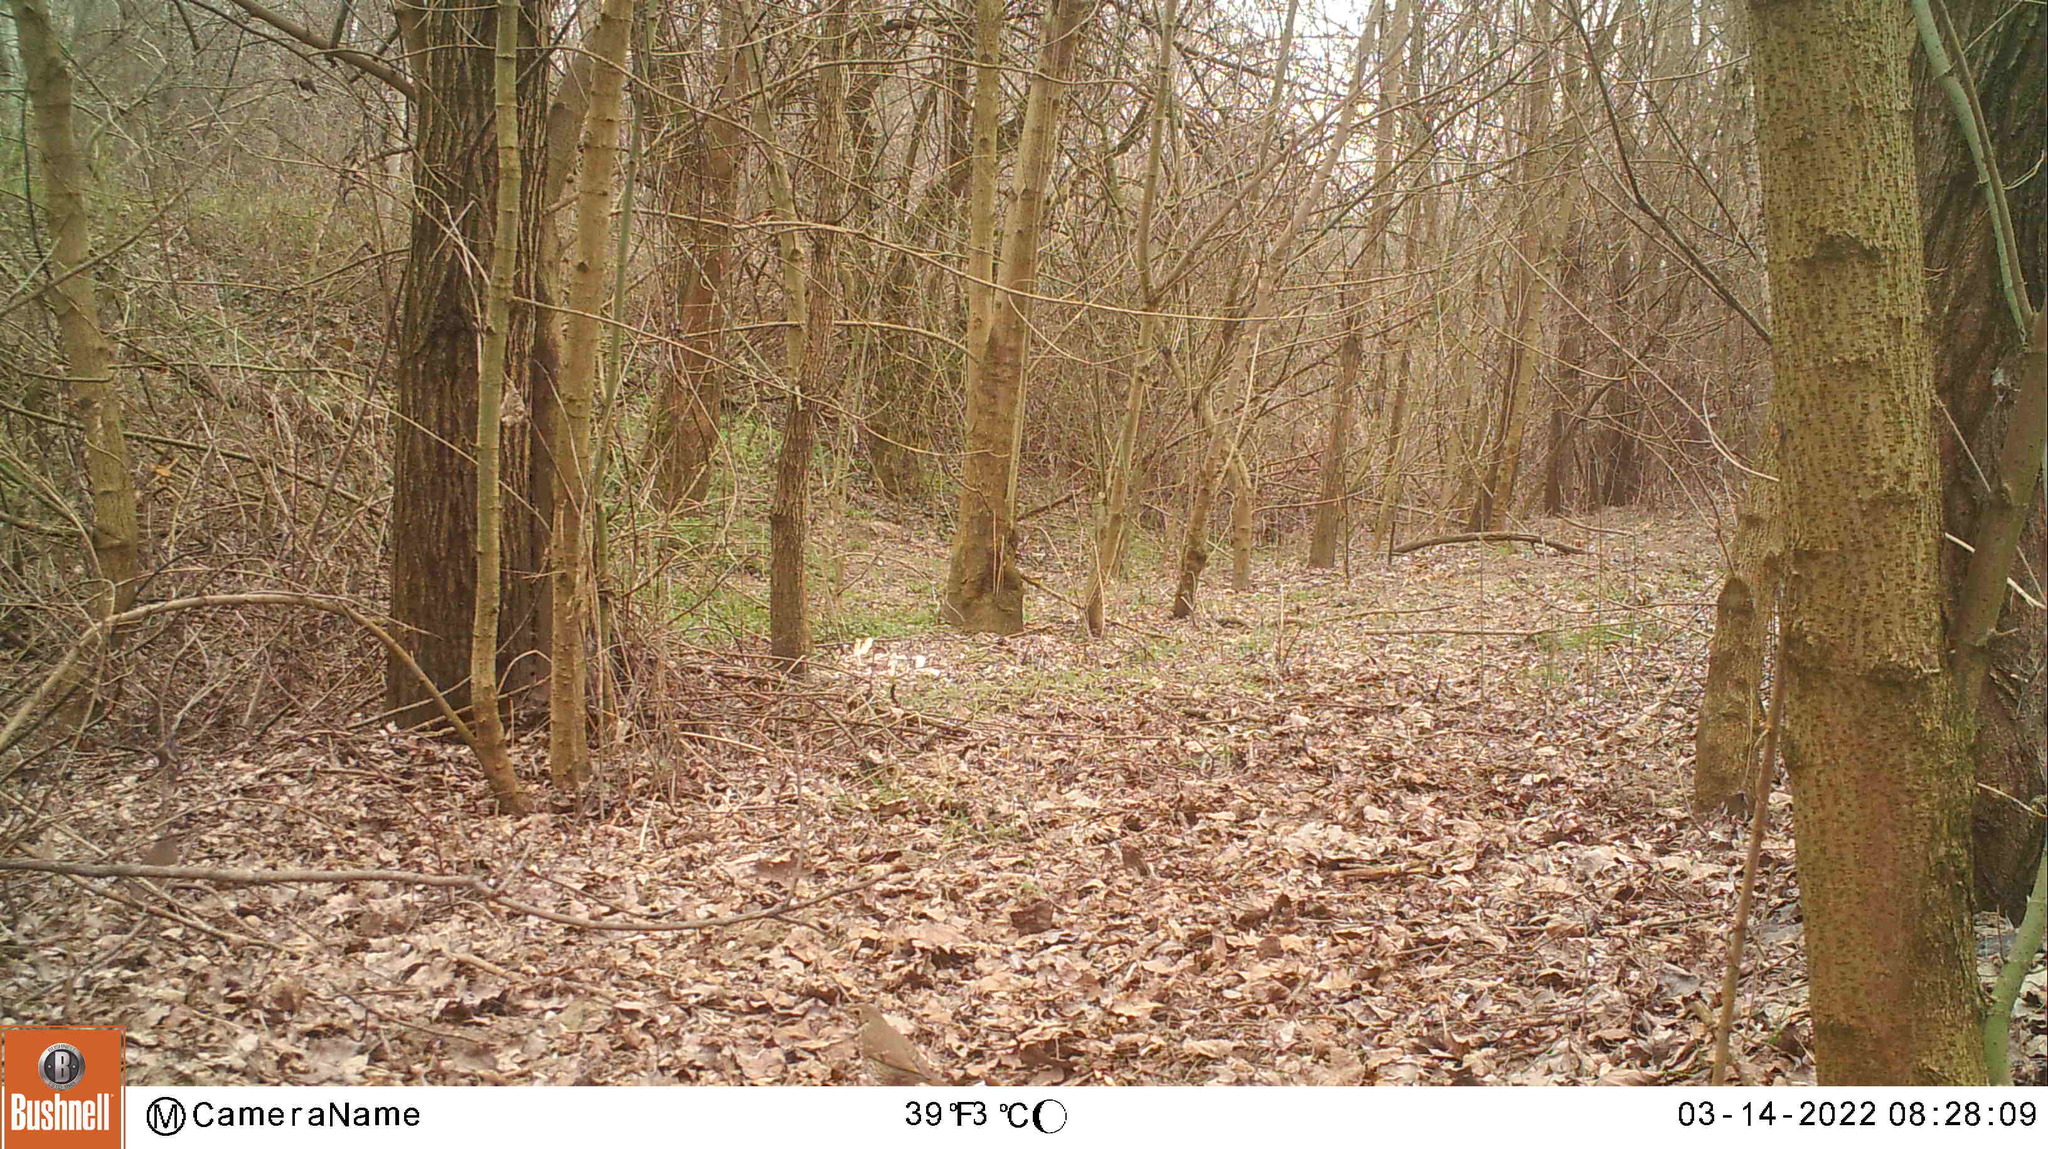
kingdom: Animalia
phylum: Chordata
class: Aves
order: Passeriformes
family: Turdidae
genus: Turdus
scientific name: Turdus philomelos
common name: Song thrush
